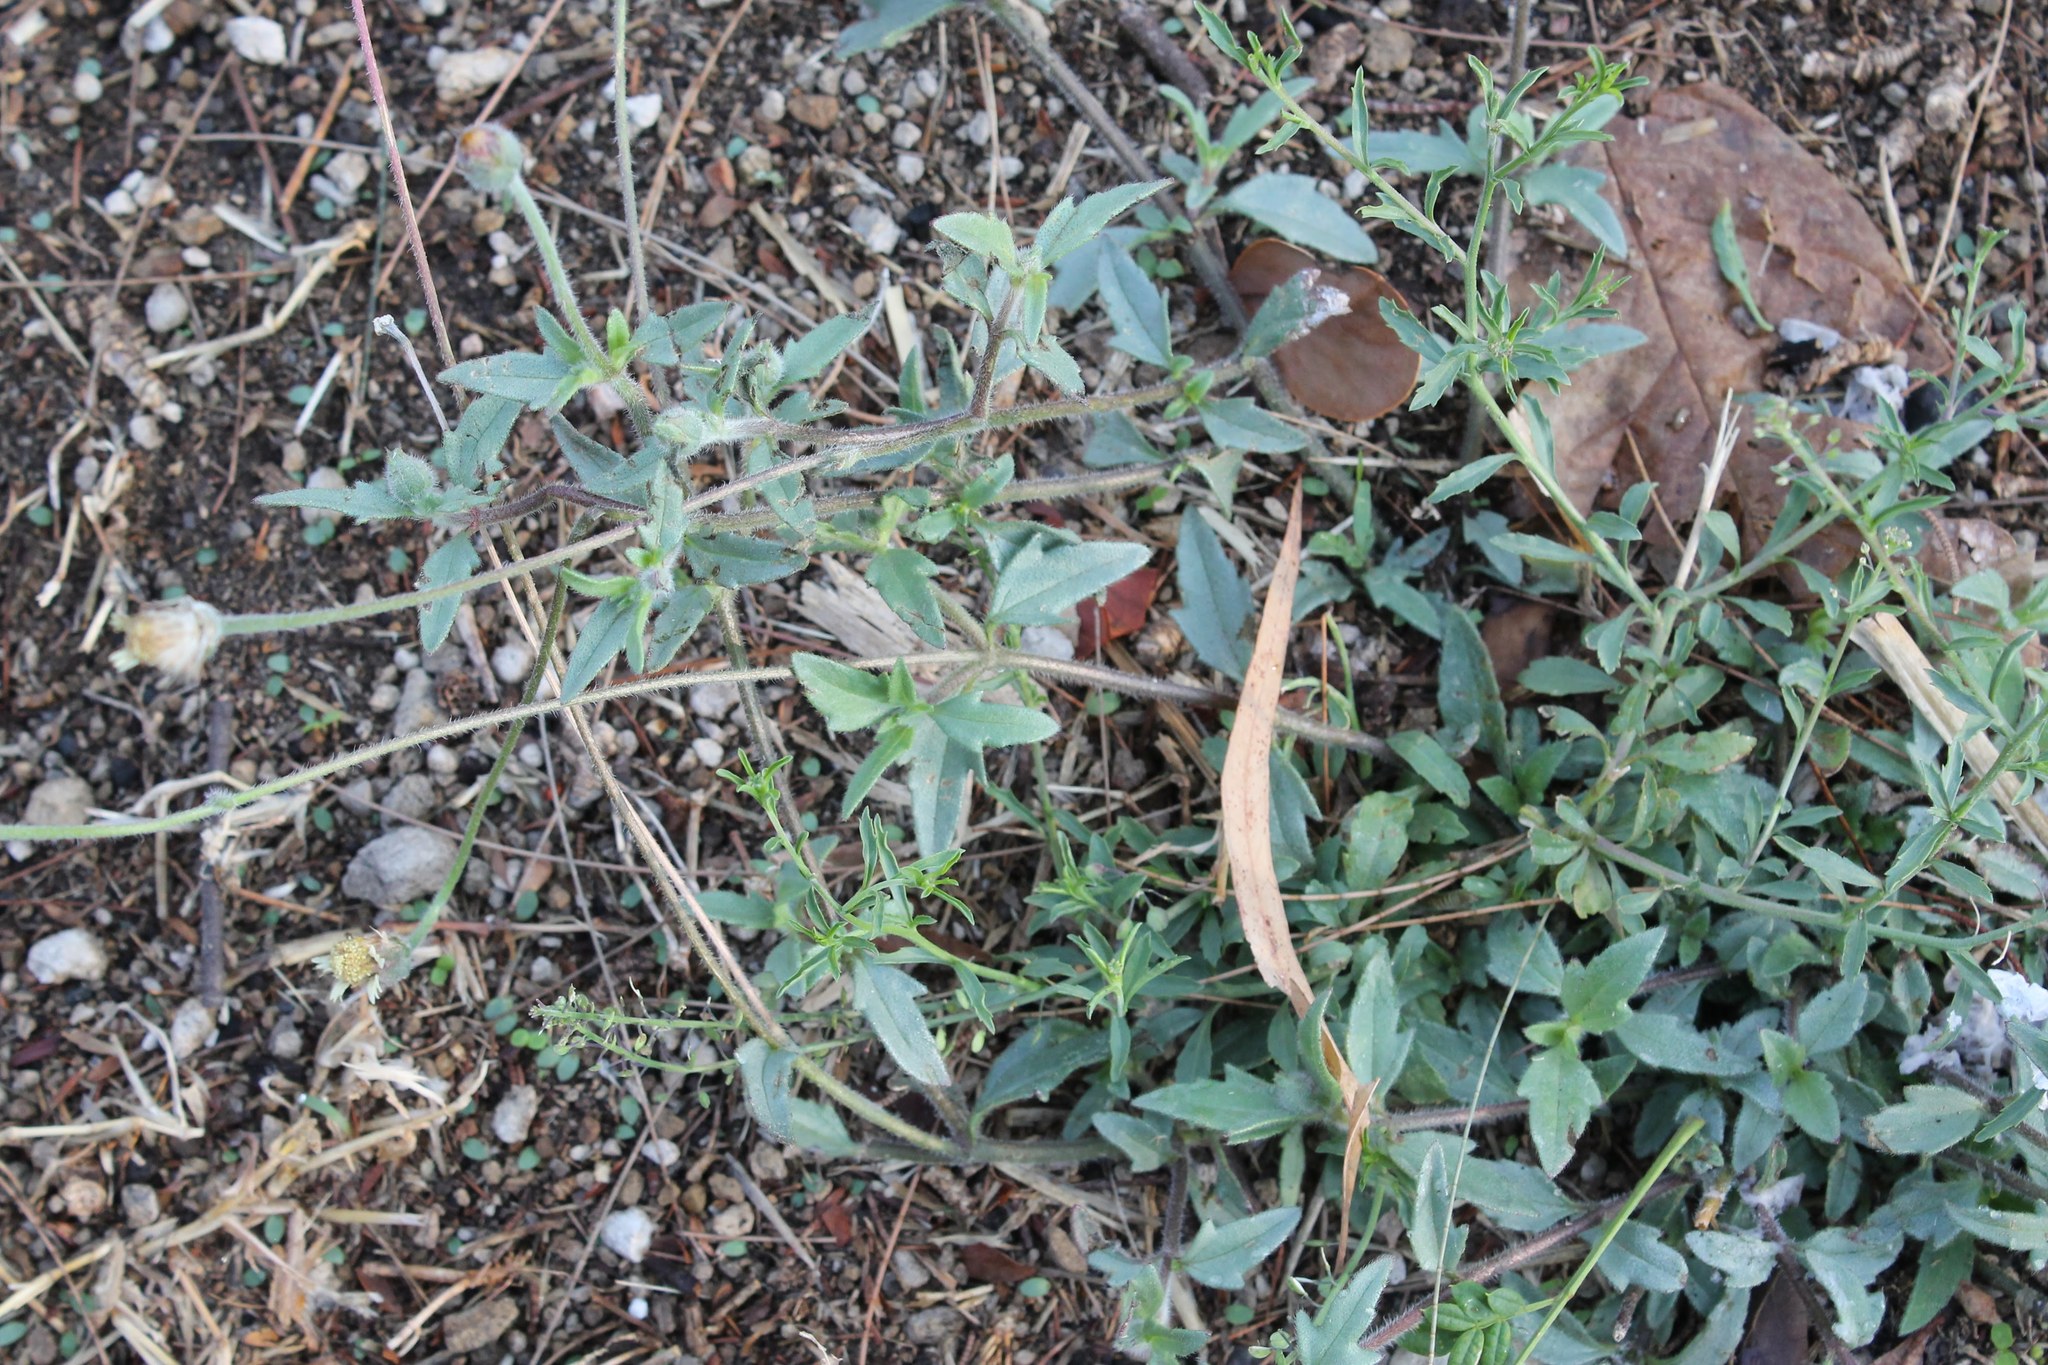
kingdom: Plantae
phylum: Tracheophyta
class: Magnoliopsida
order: Asterales
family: Asteraceae
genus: Tridax
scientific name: Tridax procumbens
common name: Coatbuttons
